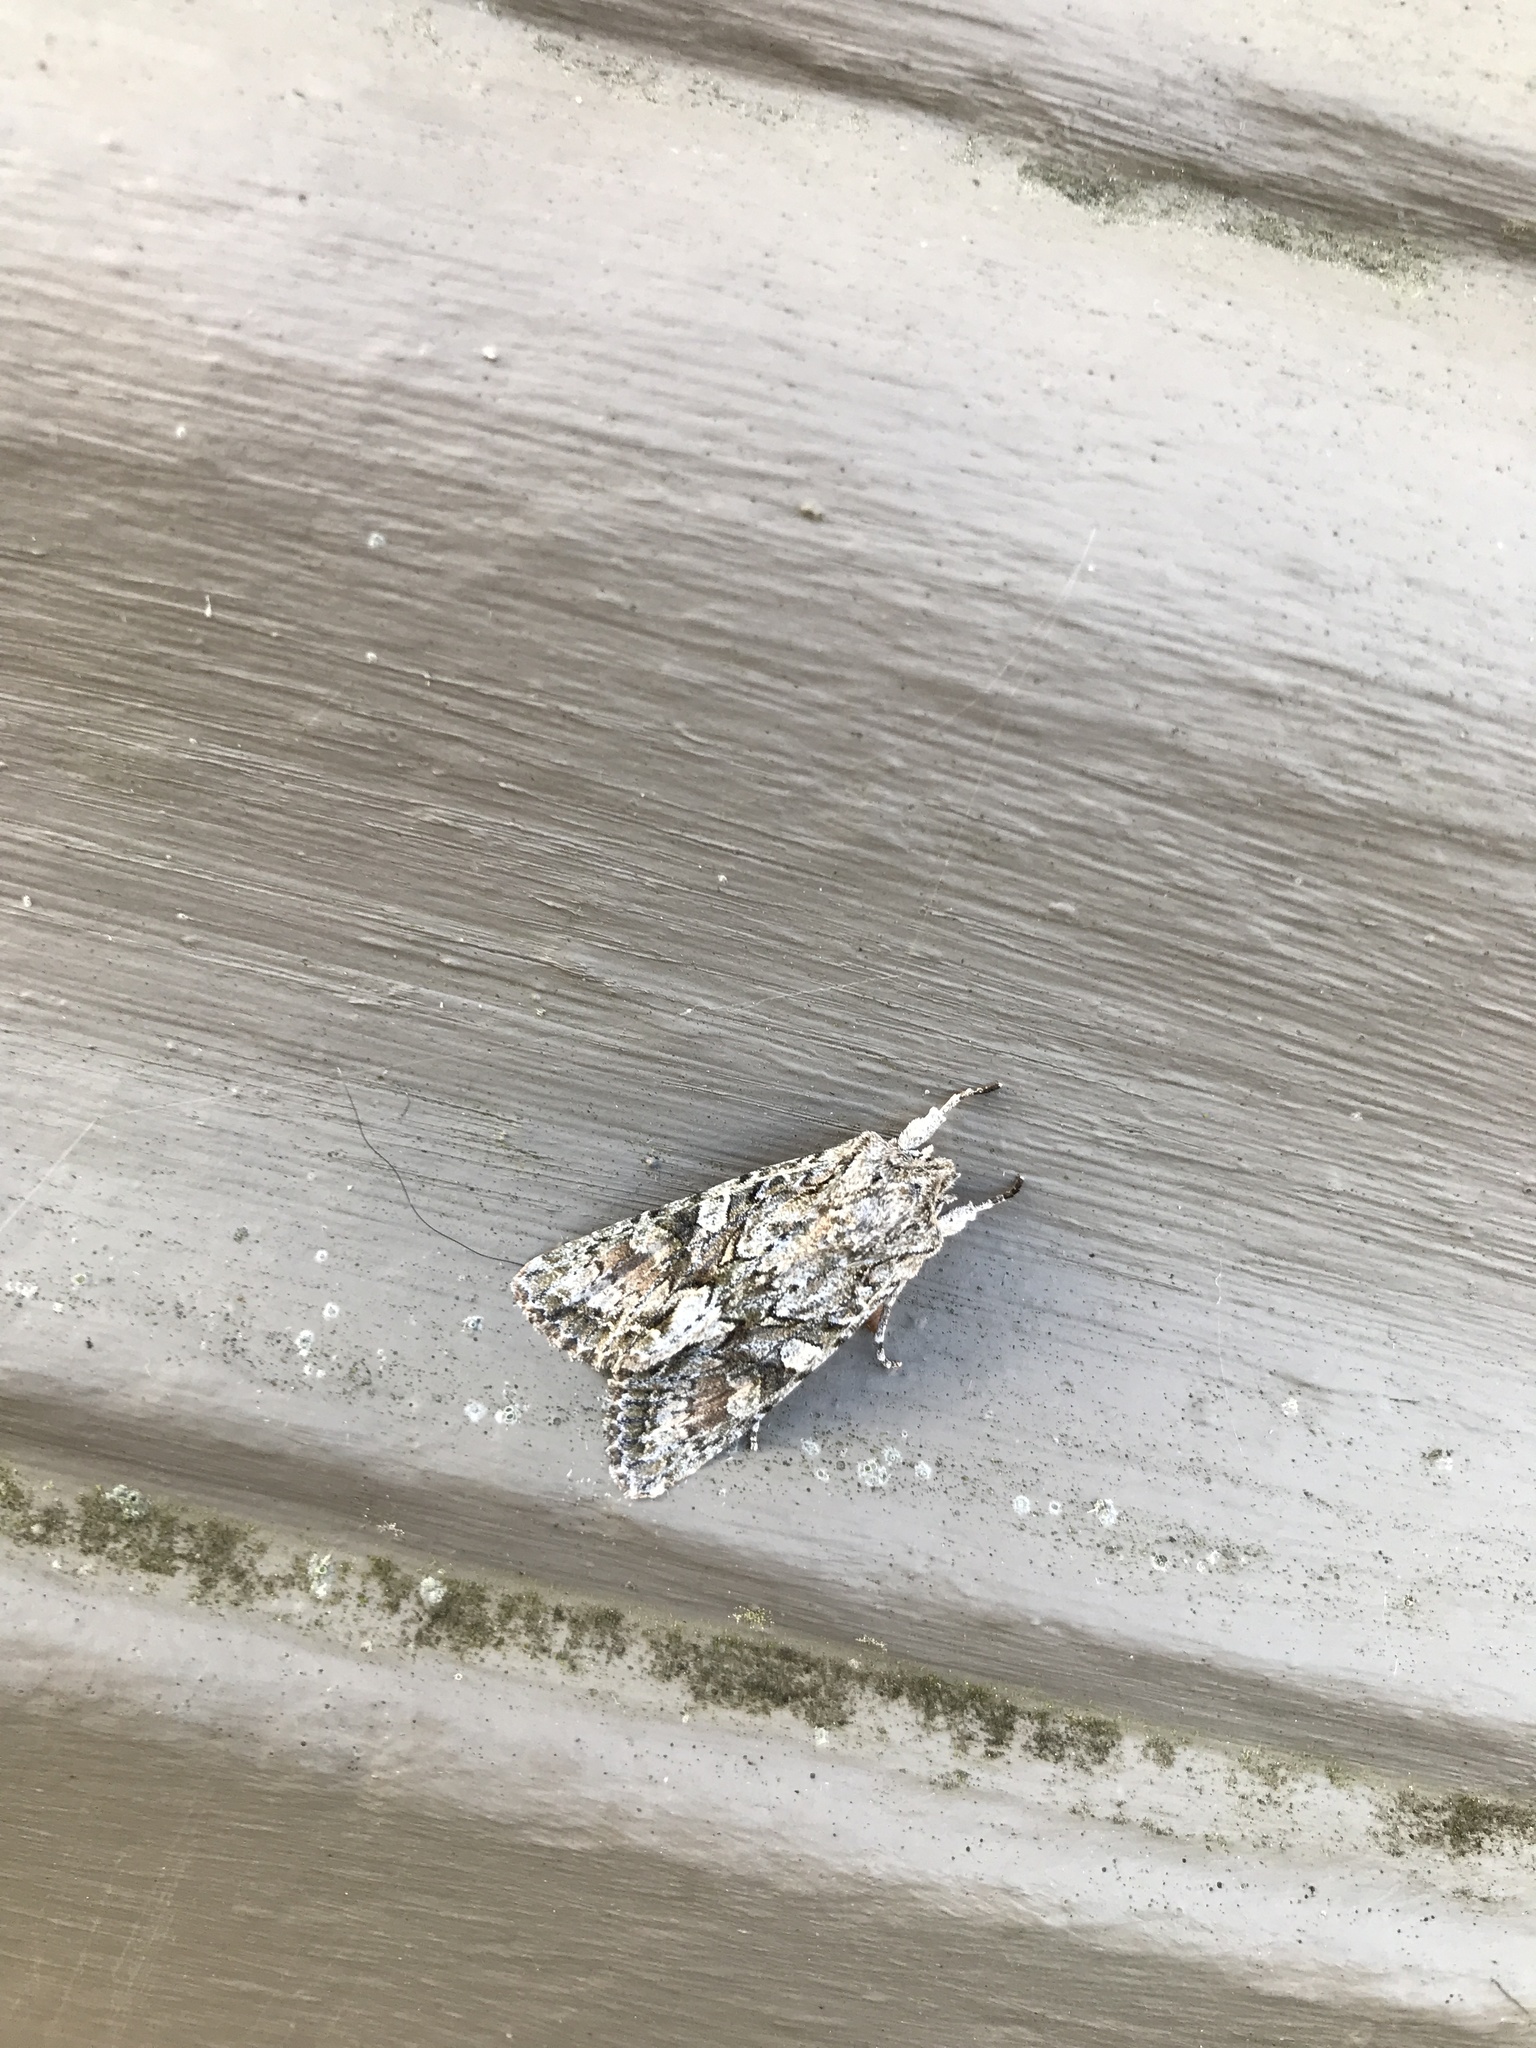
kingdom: Animalia
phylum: Arthropoda
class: Insecta
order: Lepidoptera
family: Noctuidae
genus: Ichneutica
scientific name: Ichneutica mutans
